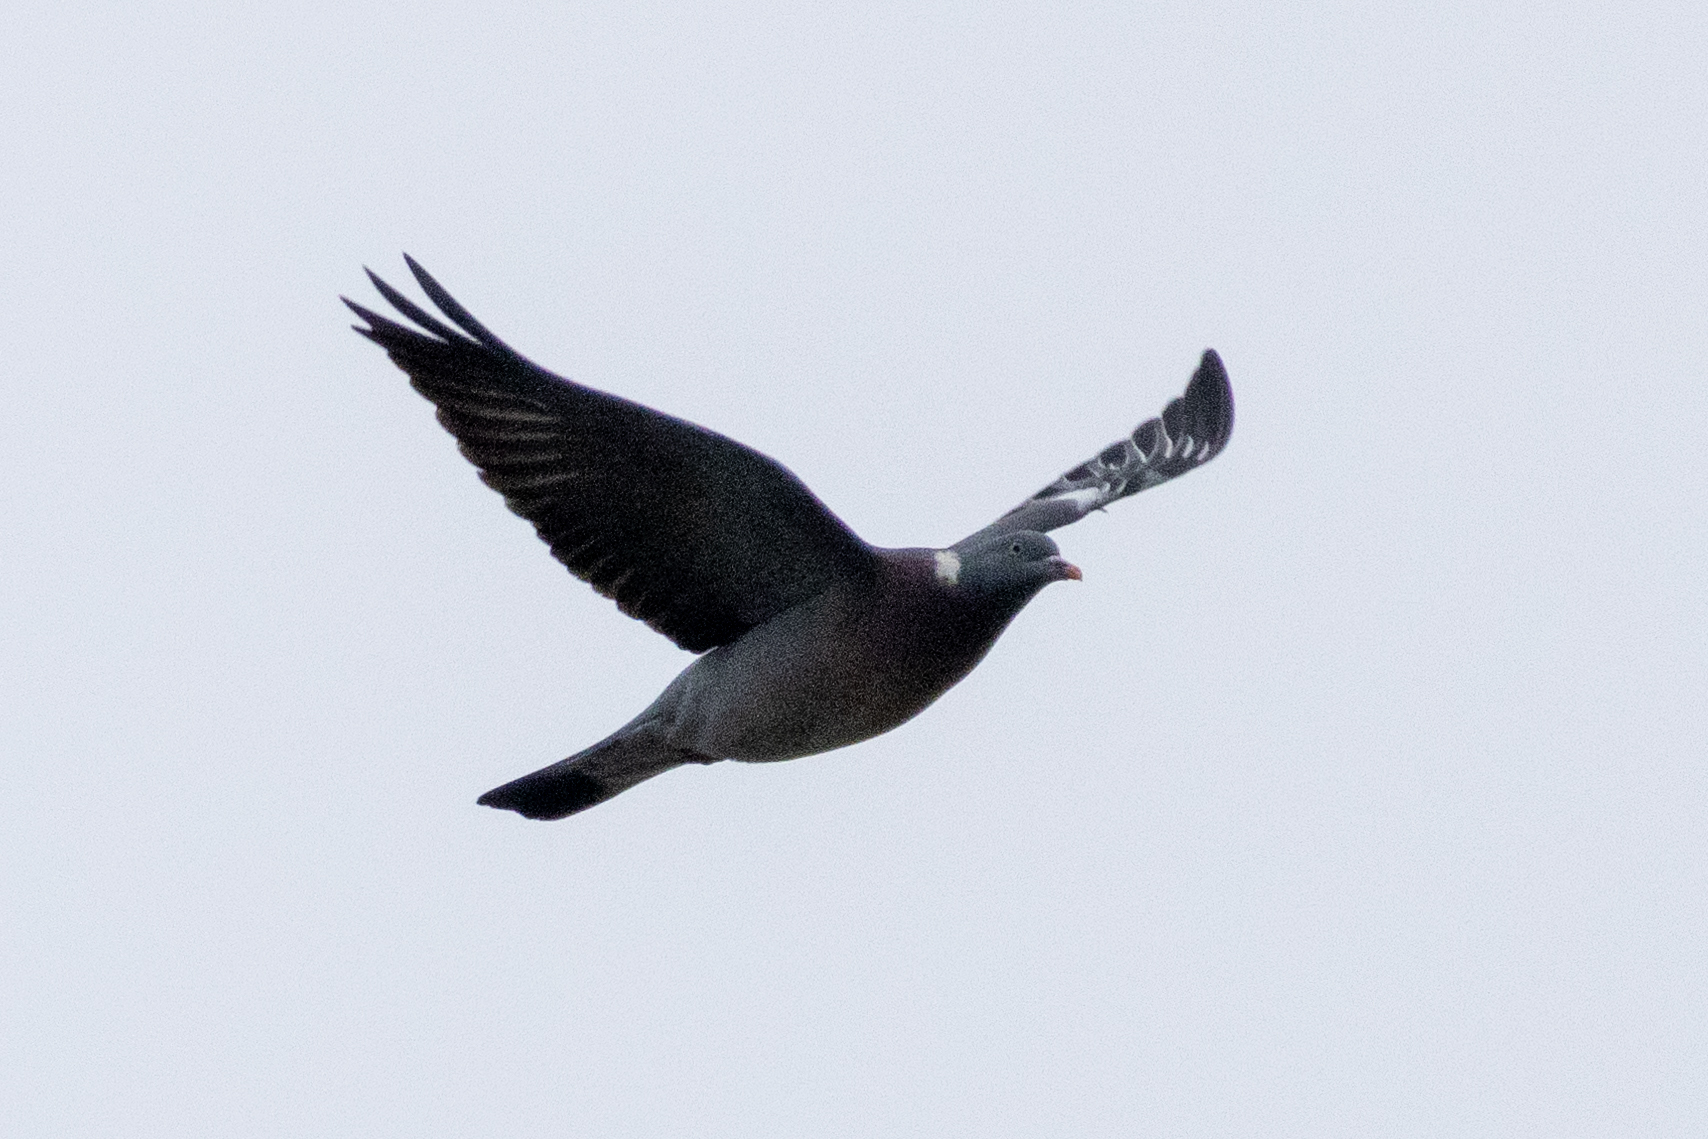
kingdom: Animalia
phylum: Chordata
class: Aves
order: Columbiformes
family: Columbidae
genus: Columba
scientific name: Columba palumbus
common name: Common wood pigeon
